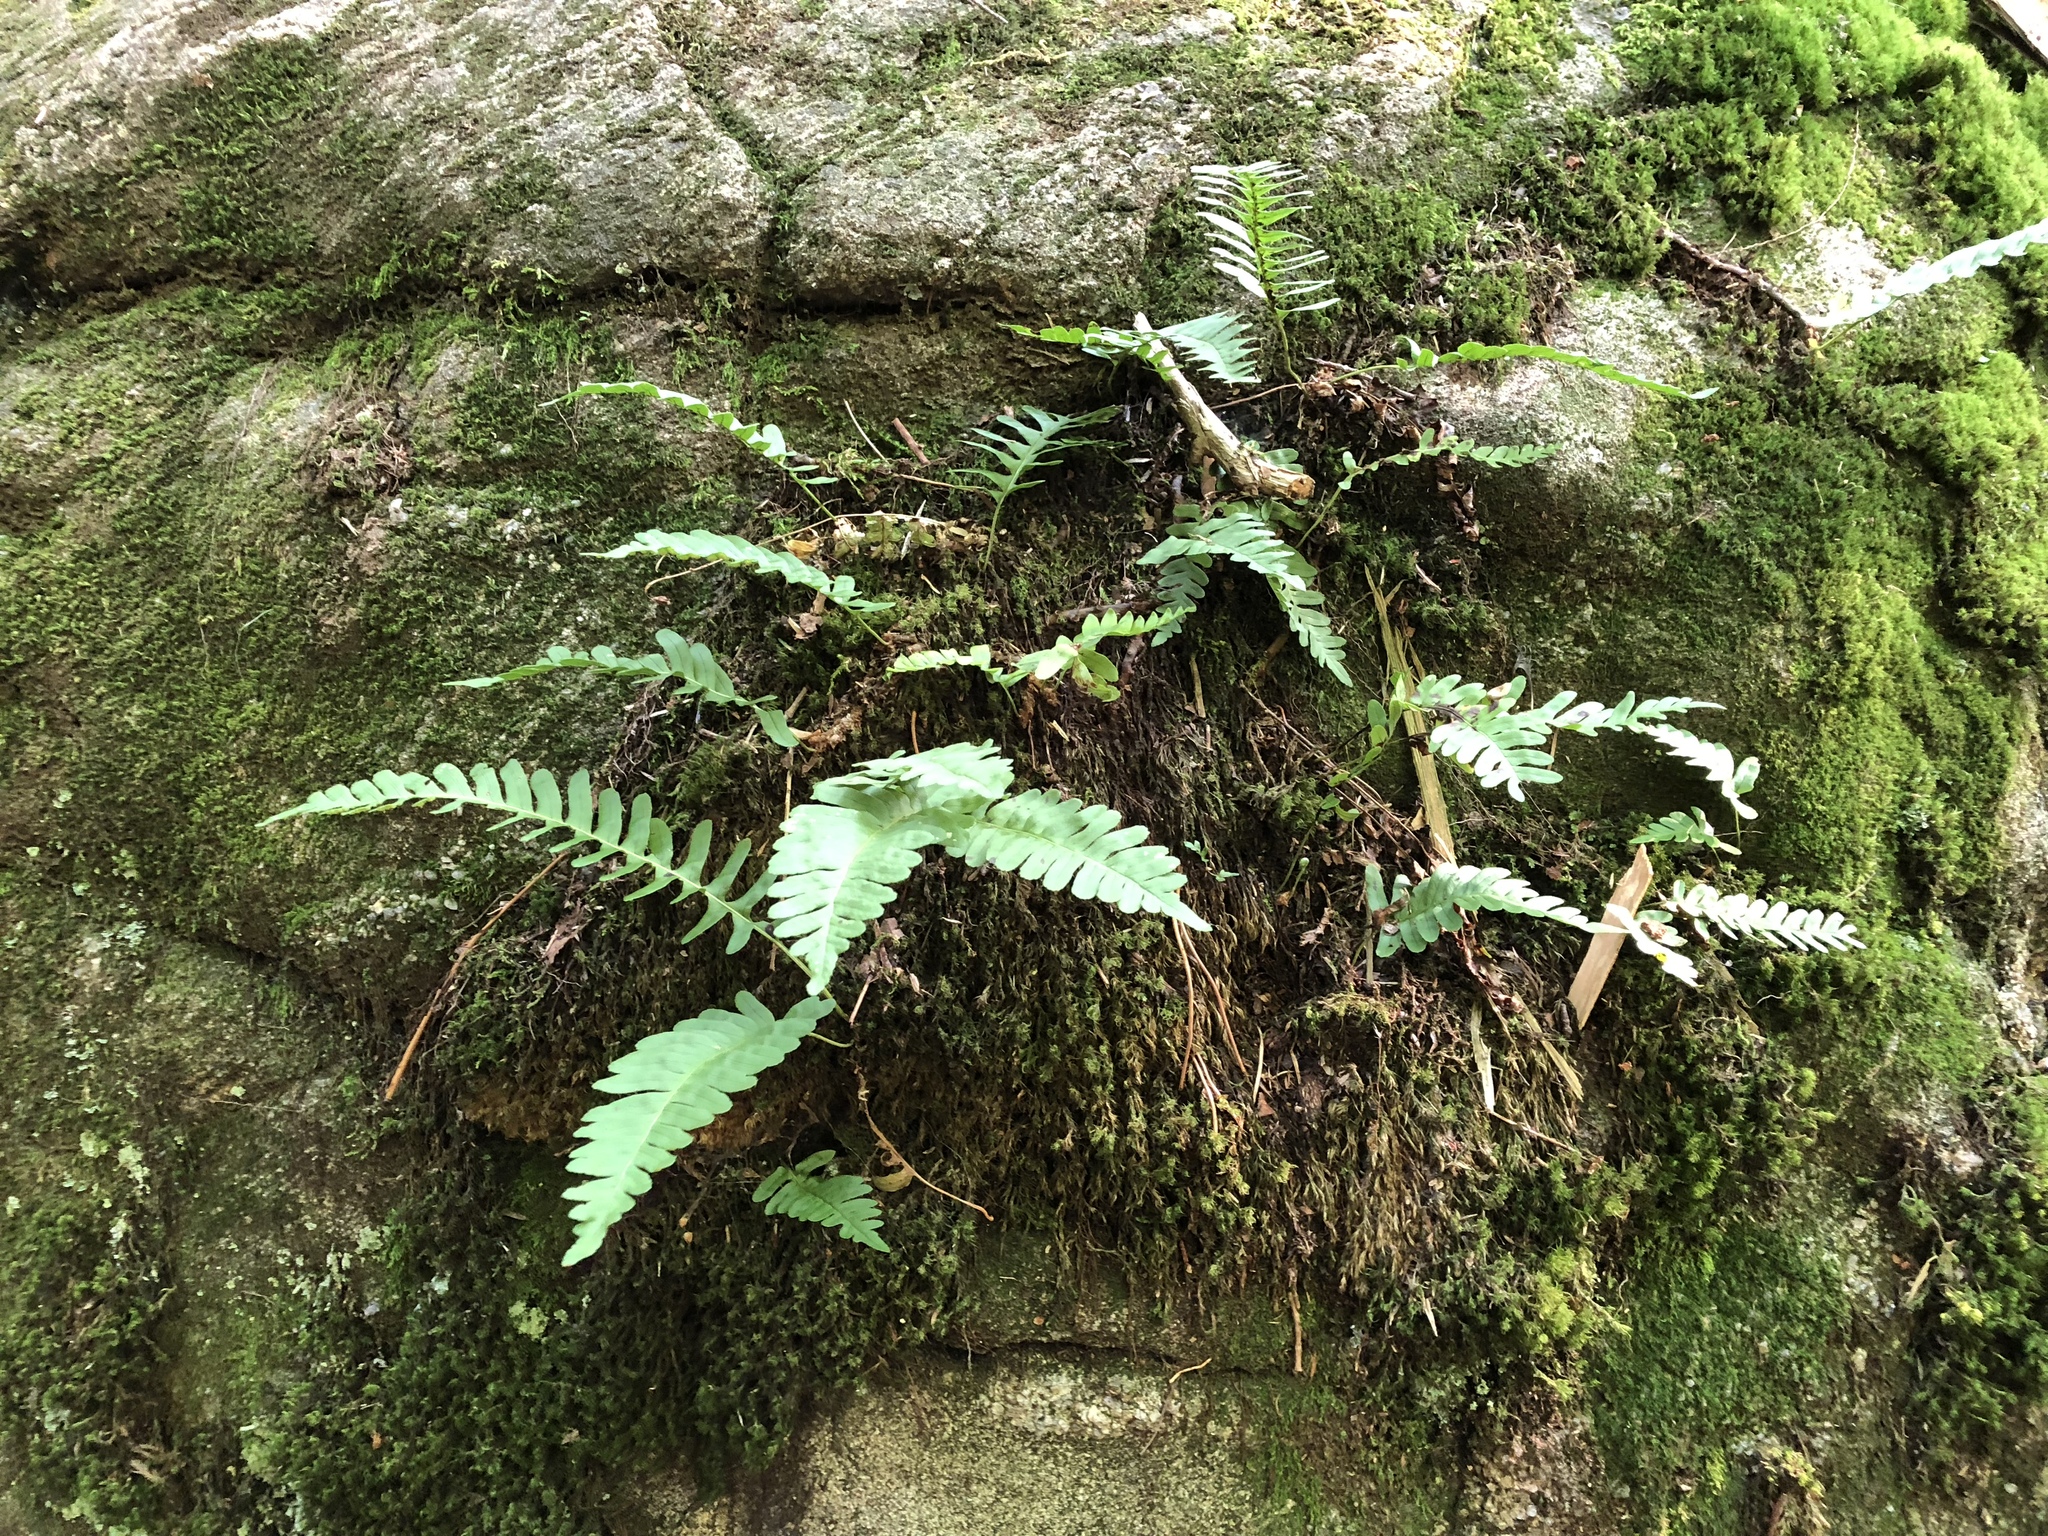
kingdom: Plantae
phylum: Tracheophyta
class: Polypodiopsida
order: Polypodiales
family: Polypodiaceae
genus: Polypodium
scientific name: Polypodium virginianum
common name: American wall fern
